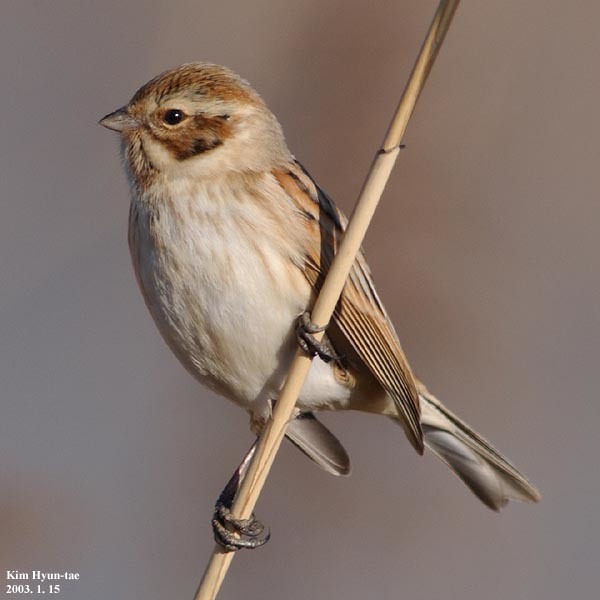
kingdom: Animalia
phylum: Chordata
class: Aves
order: Passeriformes
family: Emberizidae
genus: Emberiza
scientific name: Emberiza schoeniclus
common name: Reed bunting
